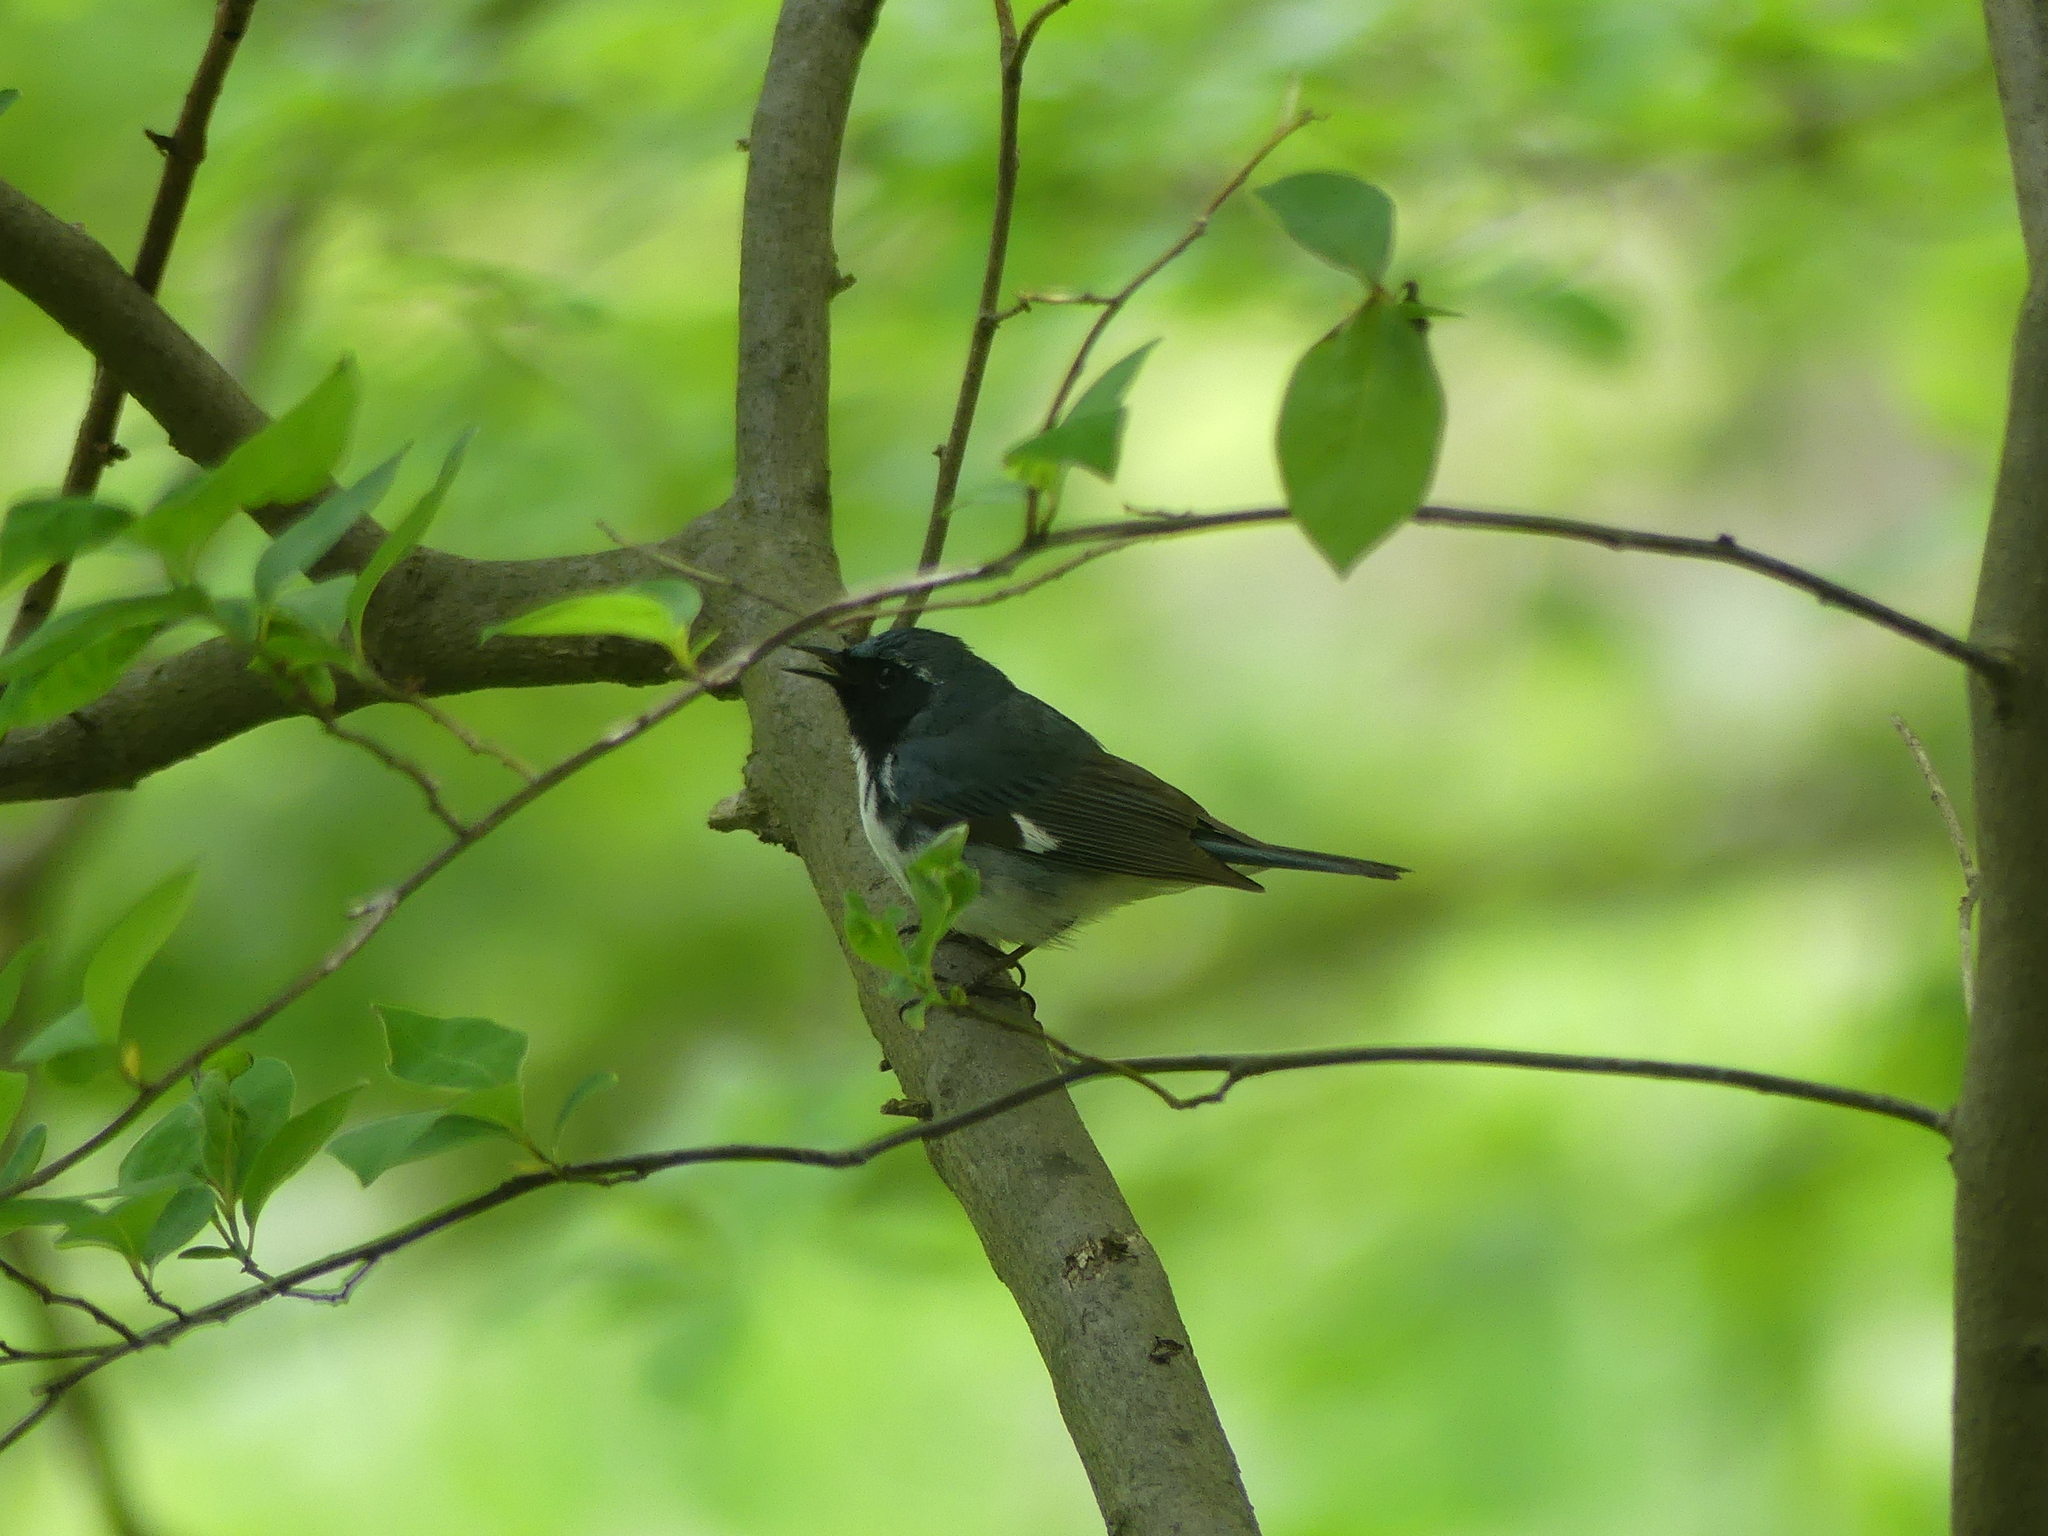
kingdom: Animalia
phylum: Chordata
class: Aves
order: Passeriformes
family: Parulidae
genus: Setophaga
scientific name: Setophaga caerulescens
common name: Black-throated blue warbler
